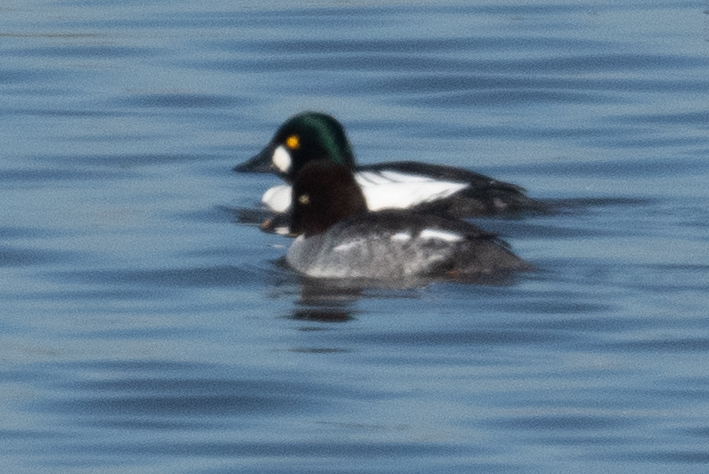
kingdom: Animalia
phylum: Chordata
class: Aves
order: Anseriformes
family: Anatidae
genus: Bucephala
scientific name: Bucephala clangula
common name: Common goldeneye
